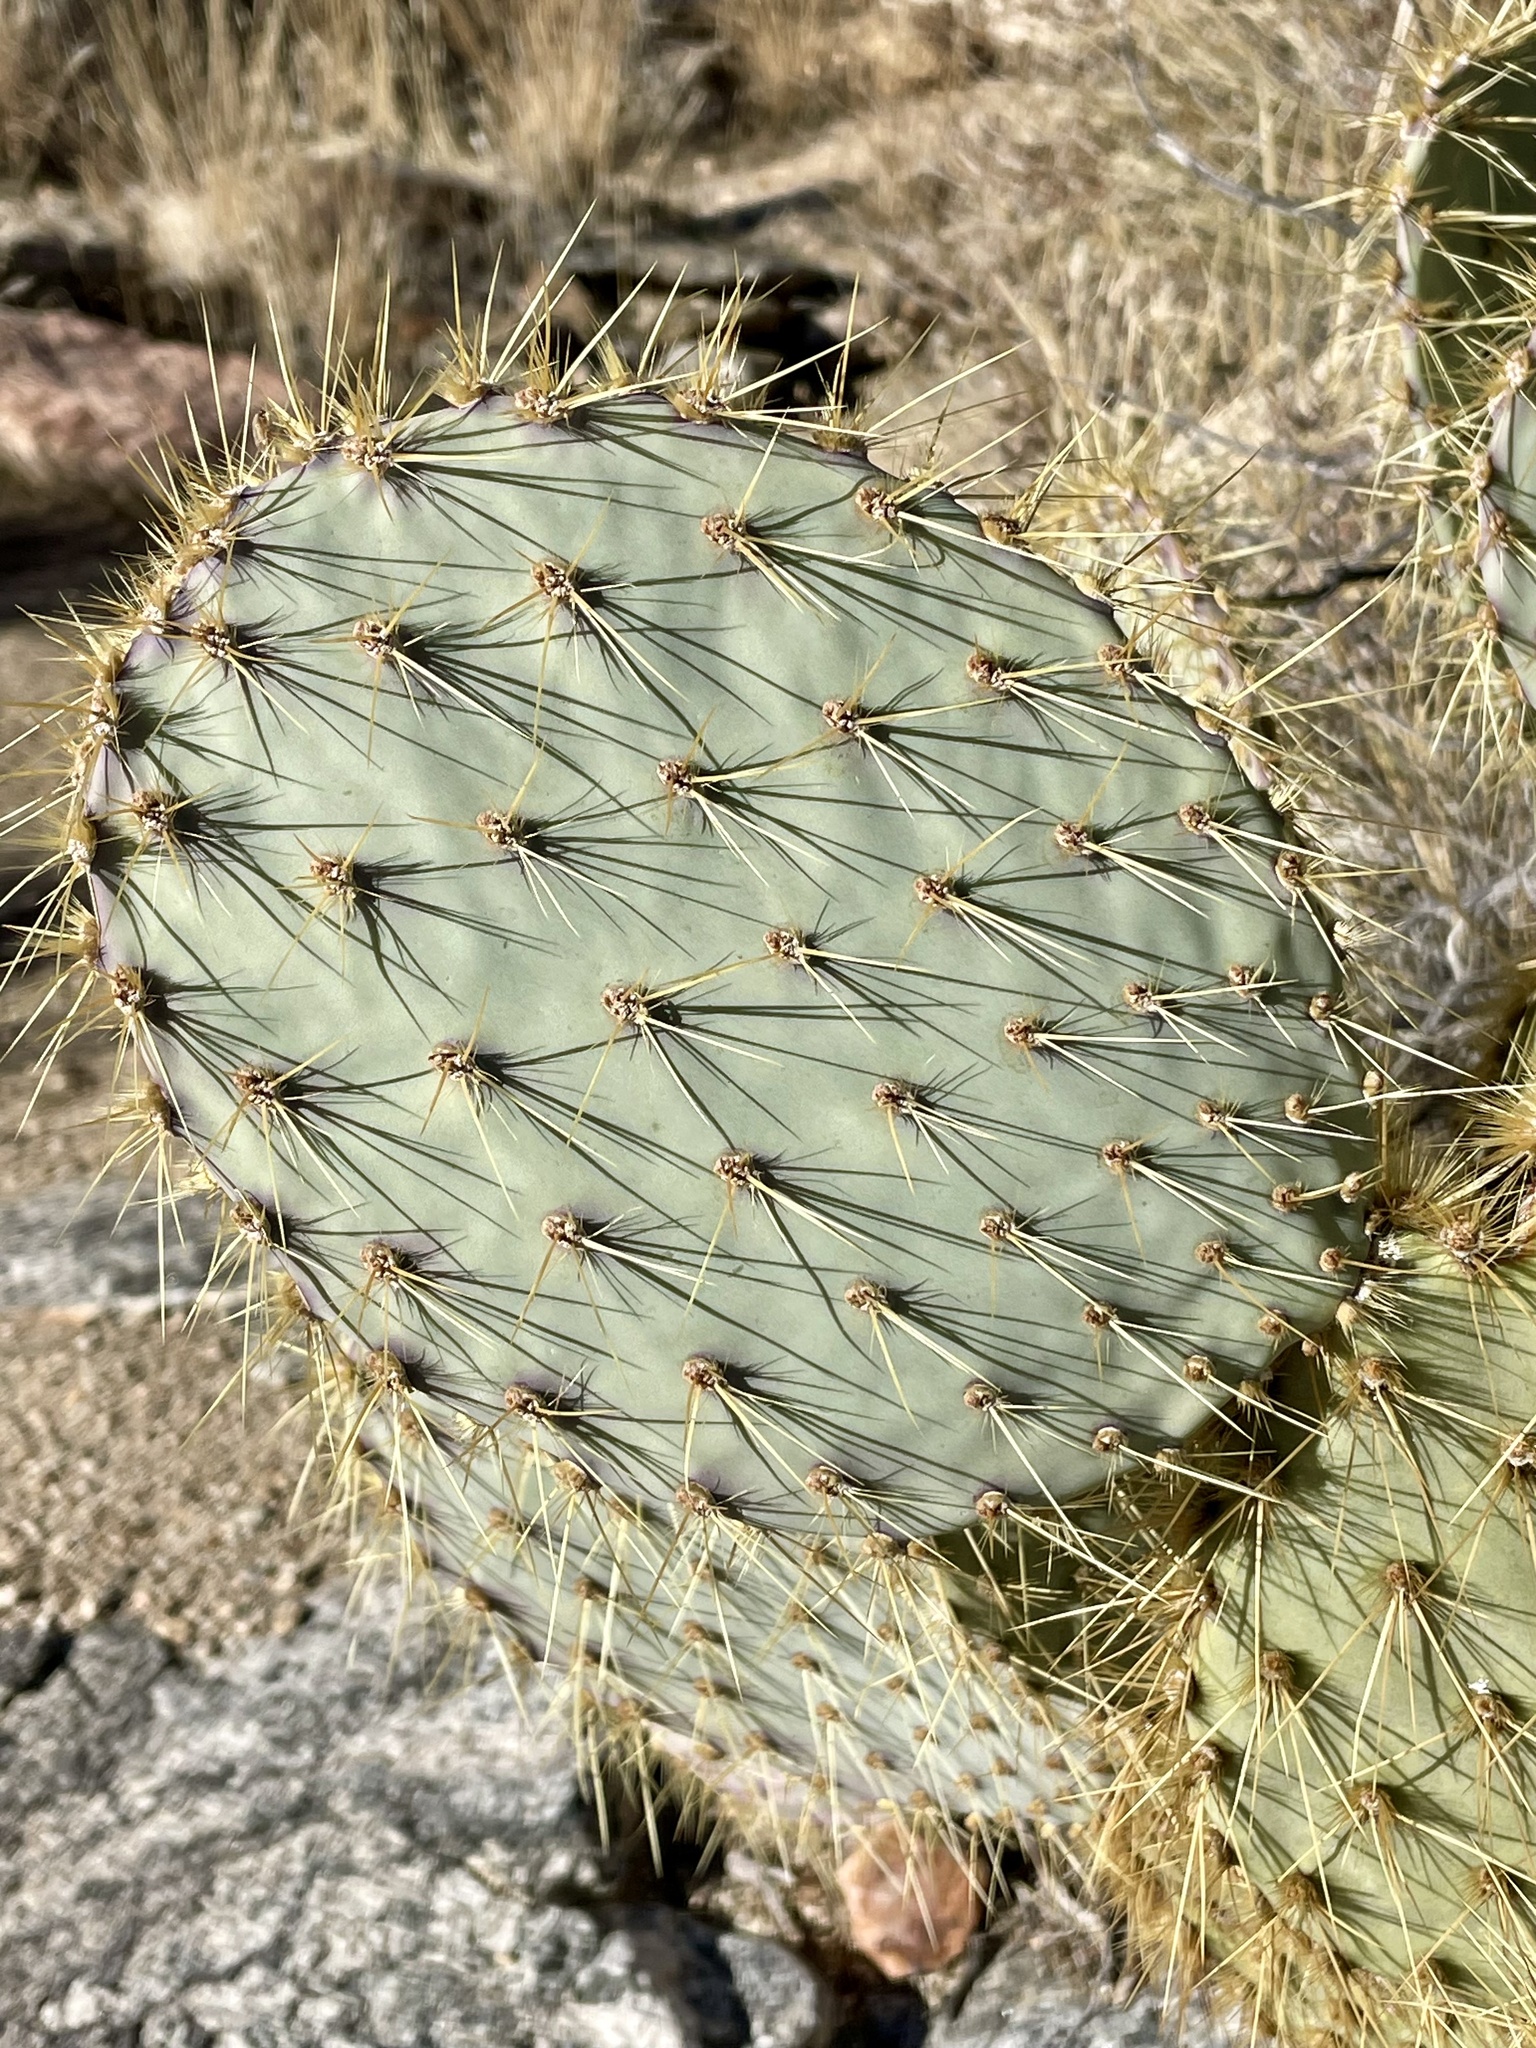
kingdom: Plantae
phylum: Tracheophyta
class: Magnoliopsida
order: Caryophyllales
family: Cactaceae
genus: Opuntia
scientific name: Opuntia chlorotica
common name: Dollar-joint prickly-pear
